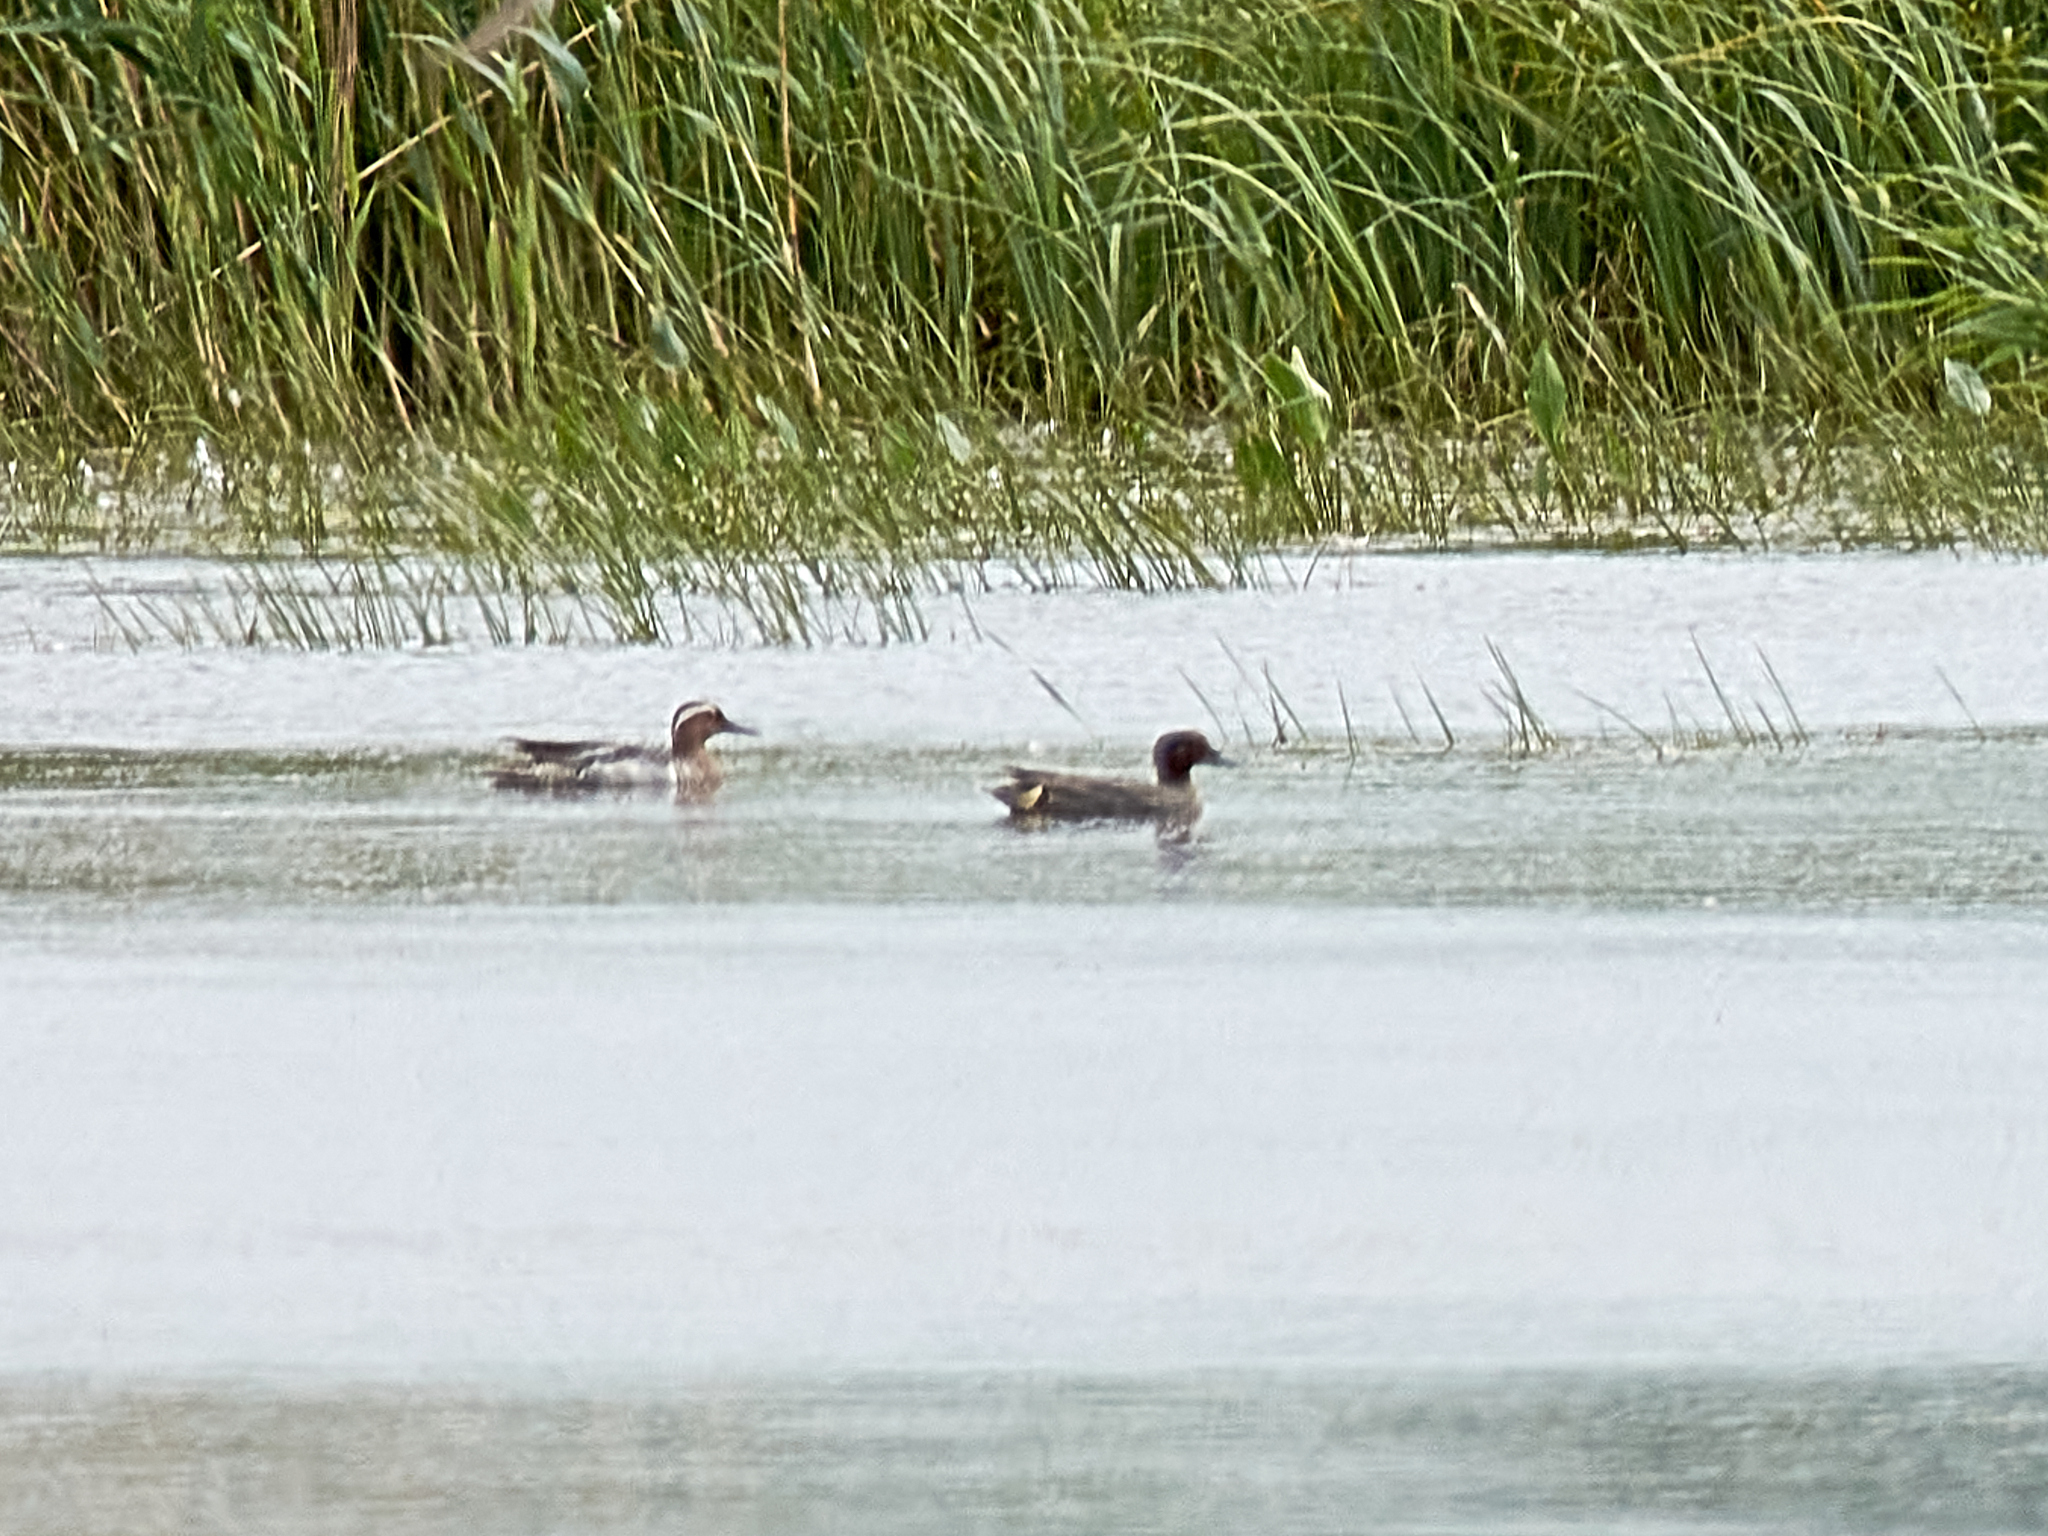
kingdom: Animalia
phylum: Chordata
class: Aves
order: Anseriformes
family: Anatidae
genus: Spatula
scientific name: Spatula querquedula
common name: Garganey
